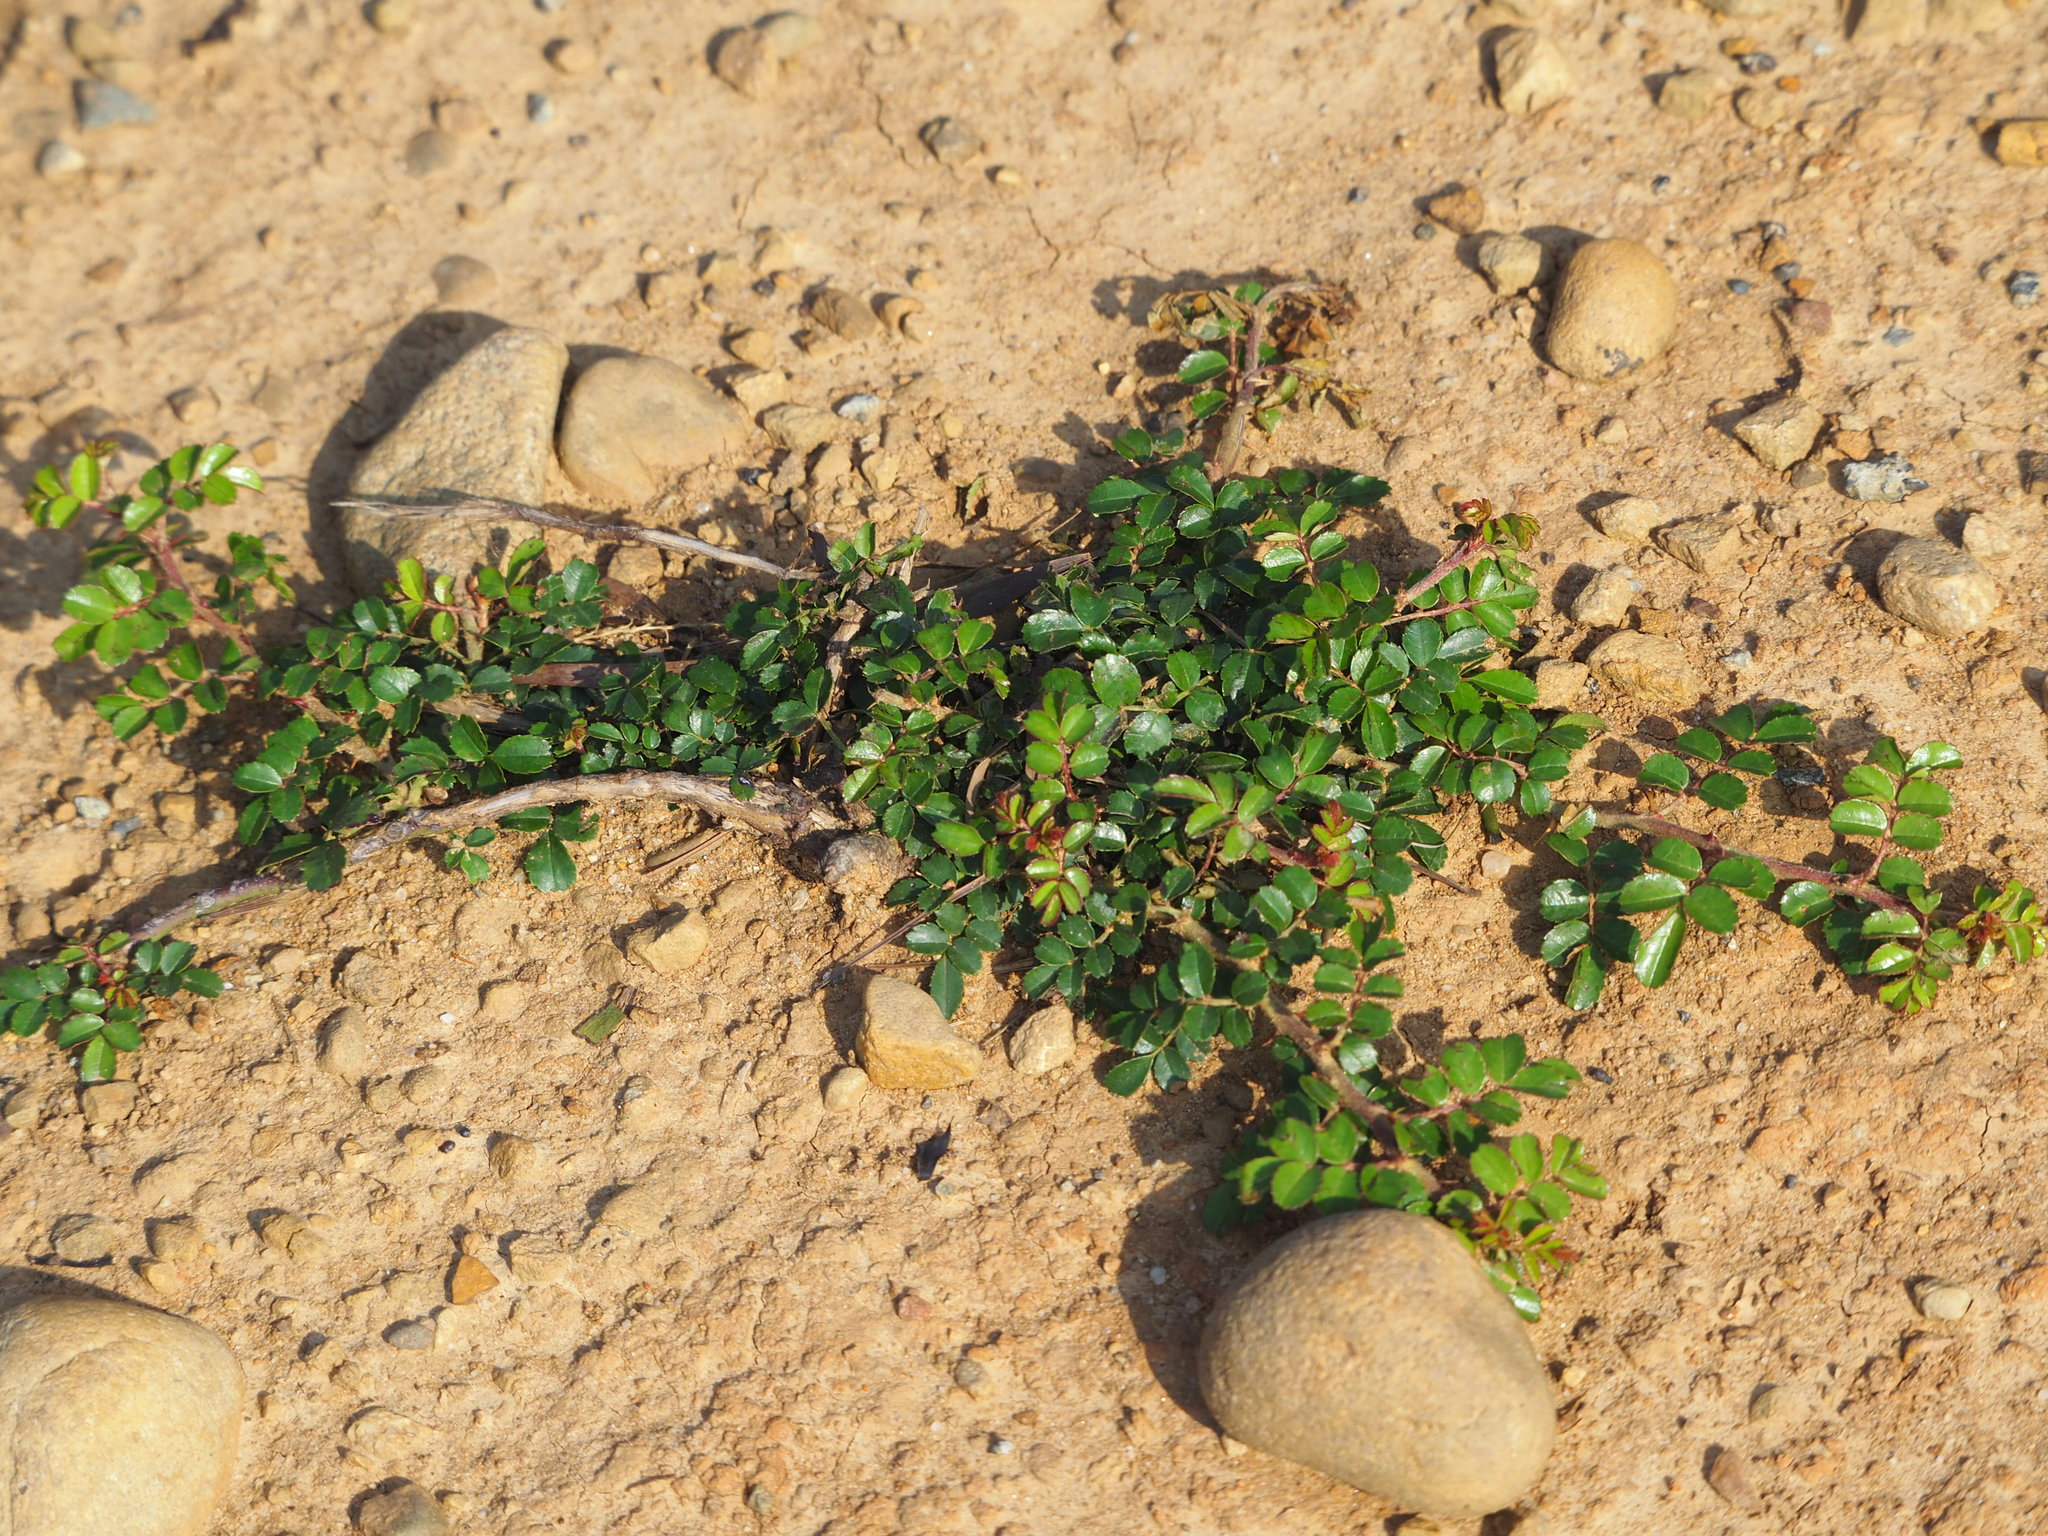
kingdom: Plantae
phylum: Tracheophyta
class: Magnoliopsida
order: Rosales
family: Rosaceae
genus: Rosa
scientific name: Rosa bracteata
